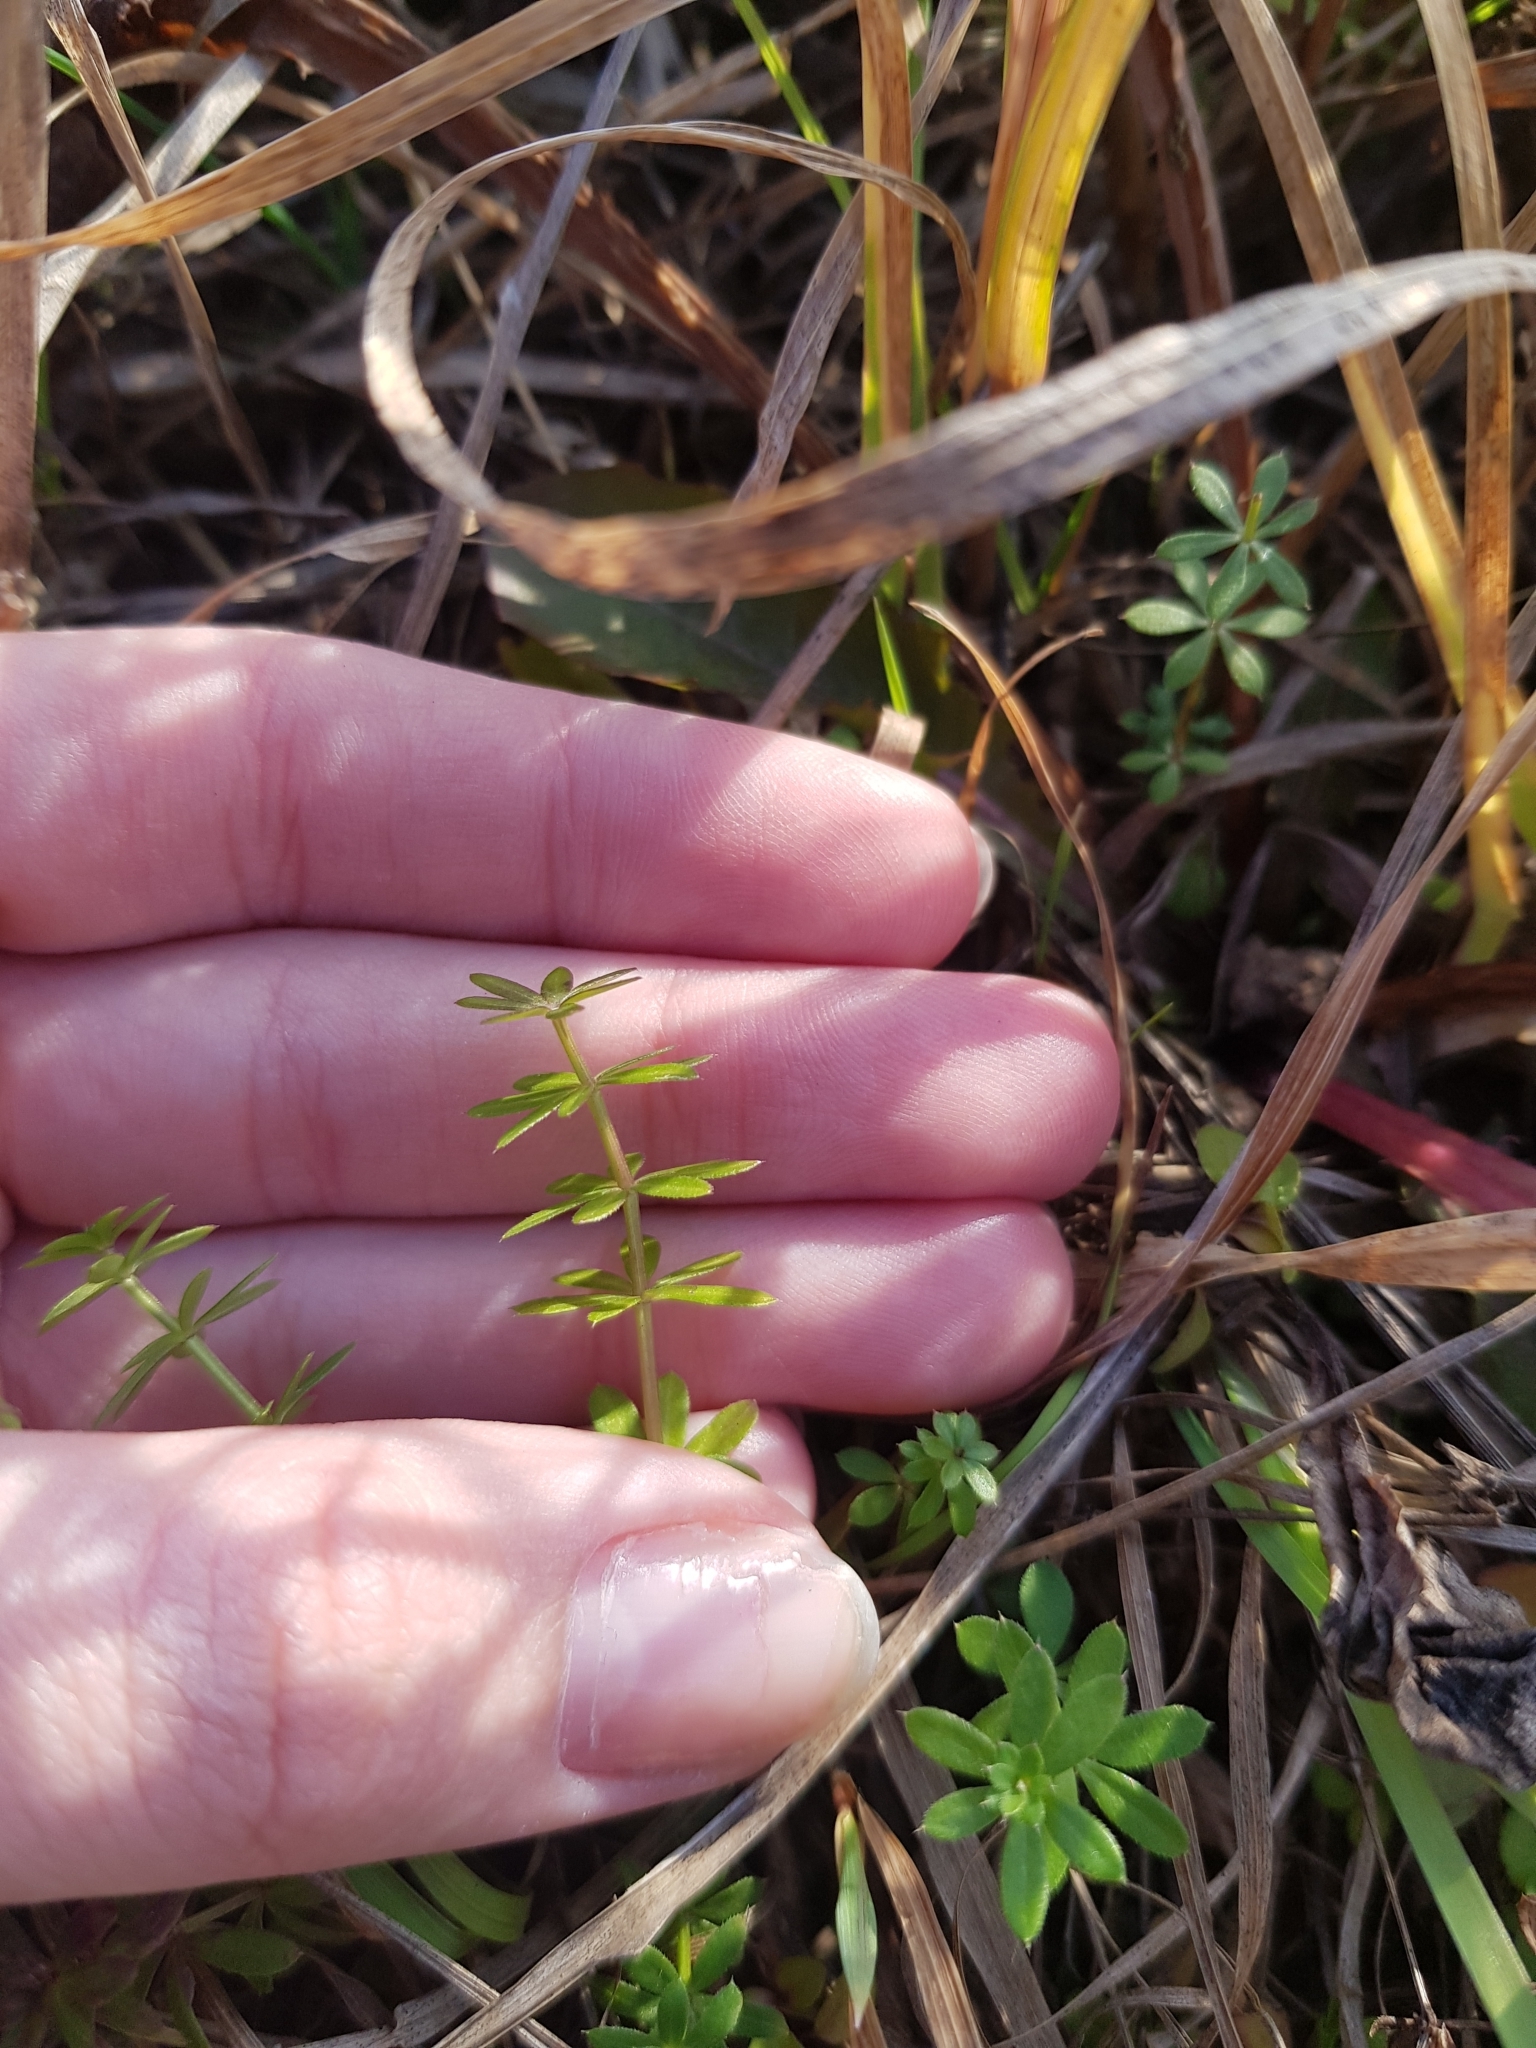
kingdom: Plantae
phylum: Tracheophyta
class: Magnoliopsida
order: Gentianales
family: Rubiaceae
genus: Galium
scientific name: Galium mollugo
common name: Hedge bedstraw
